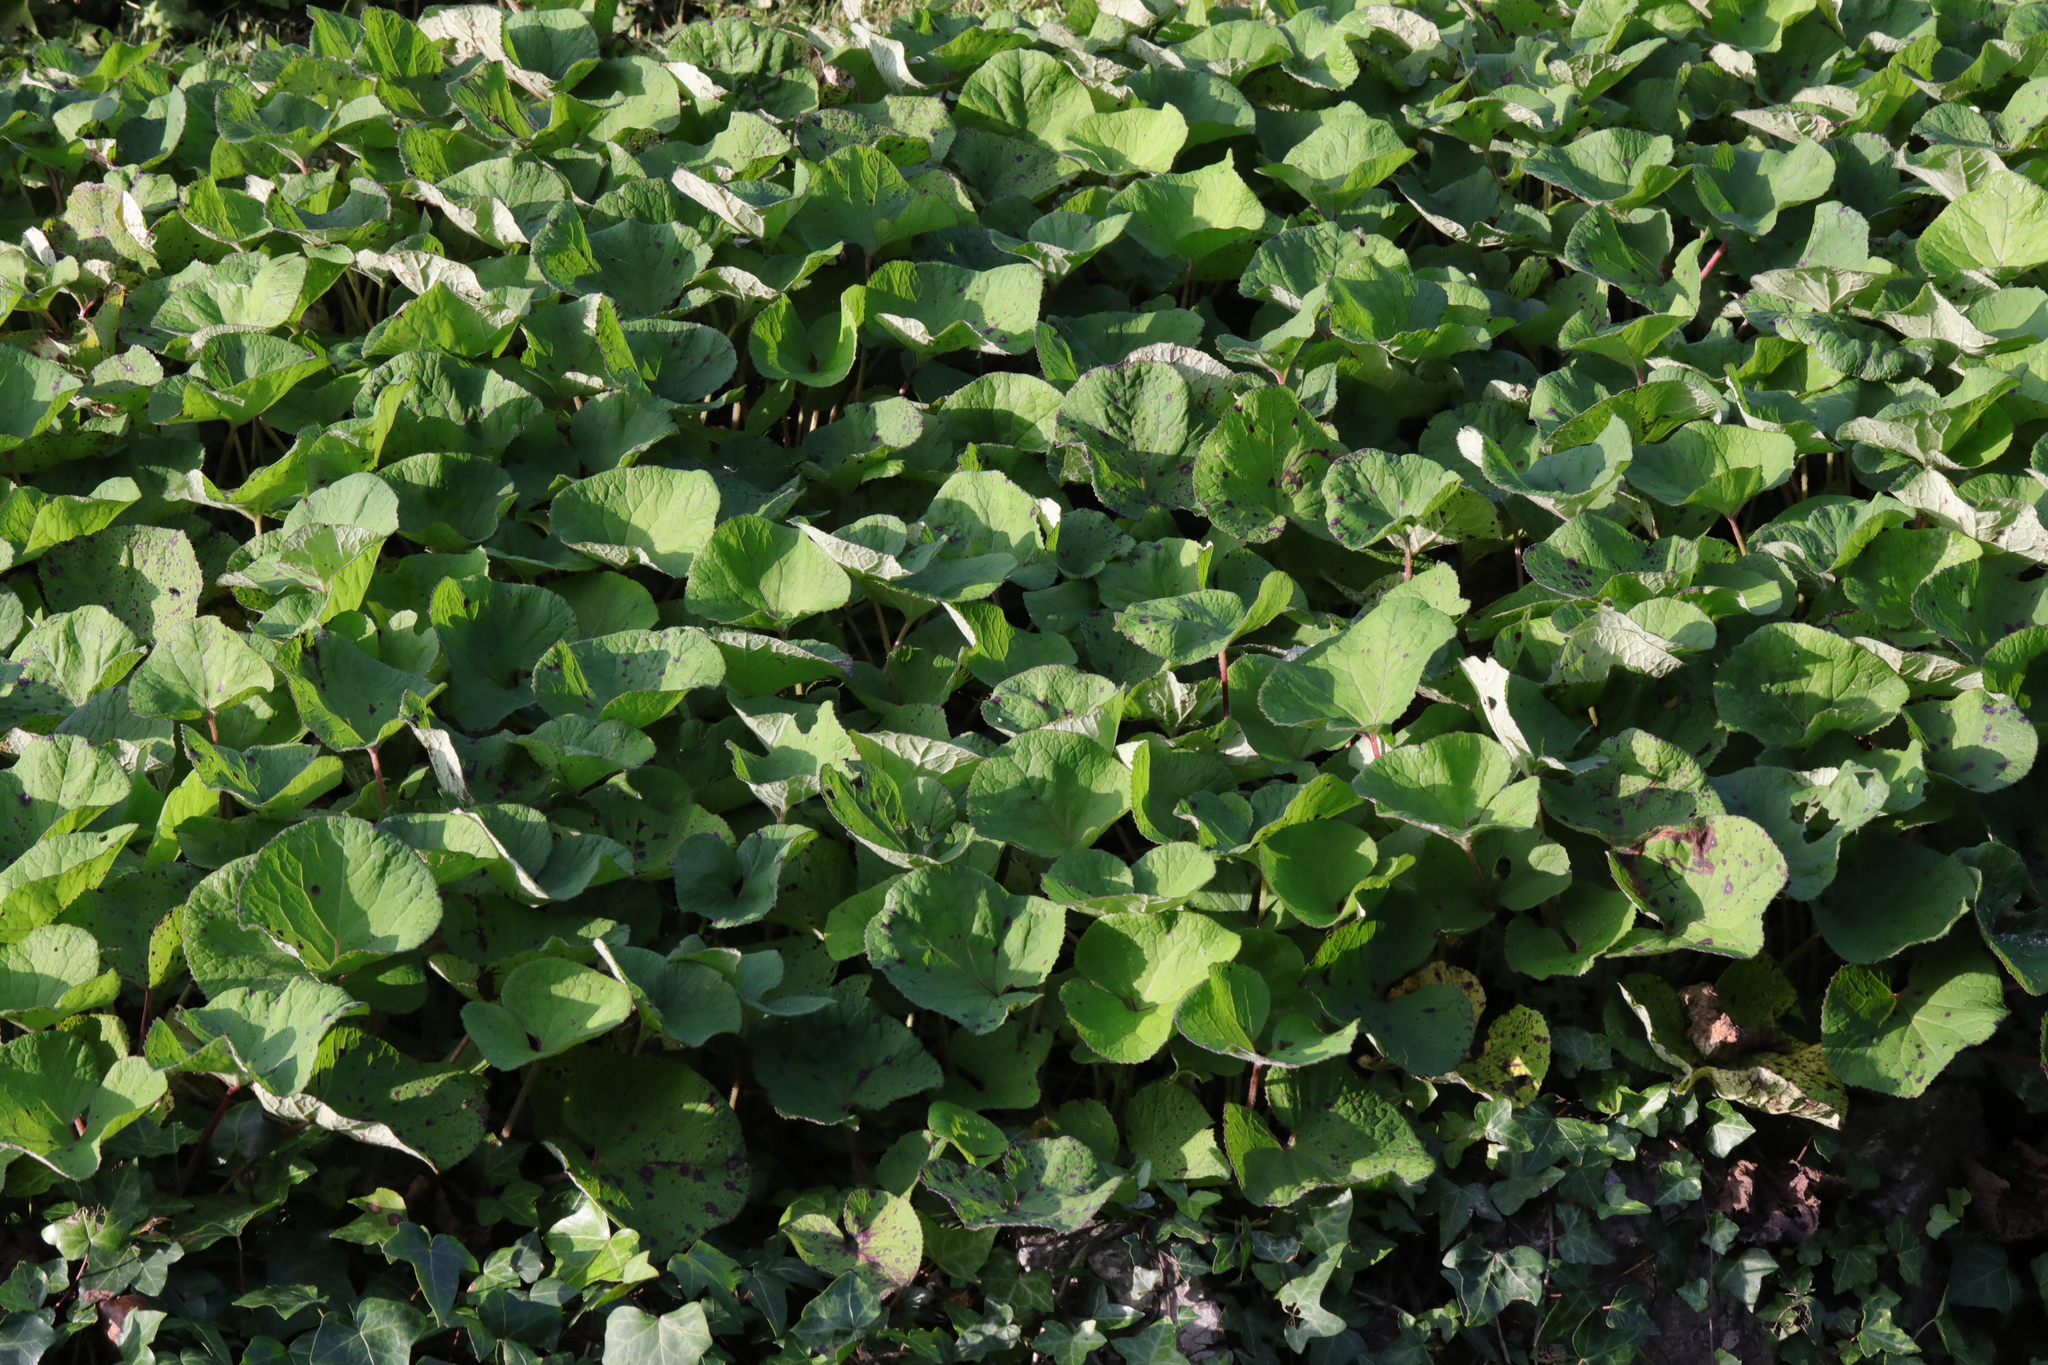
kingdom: Plantae
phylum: Tracheophyta
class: Magnoliopsida
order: Asterales
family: Asteraceae
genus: Petasites
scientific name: Petasites pyrenaicus
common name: Winter heliotrope
